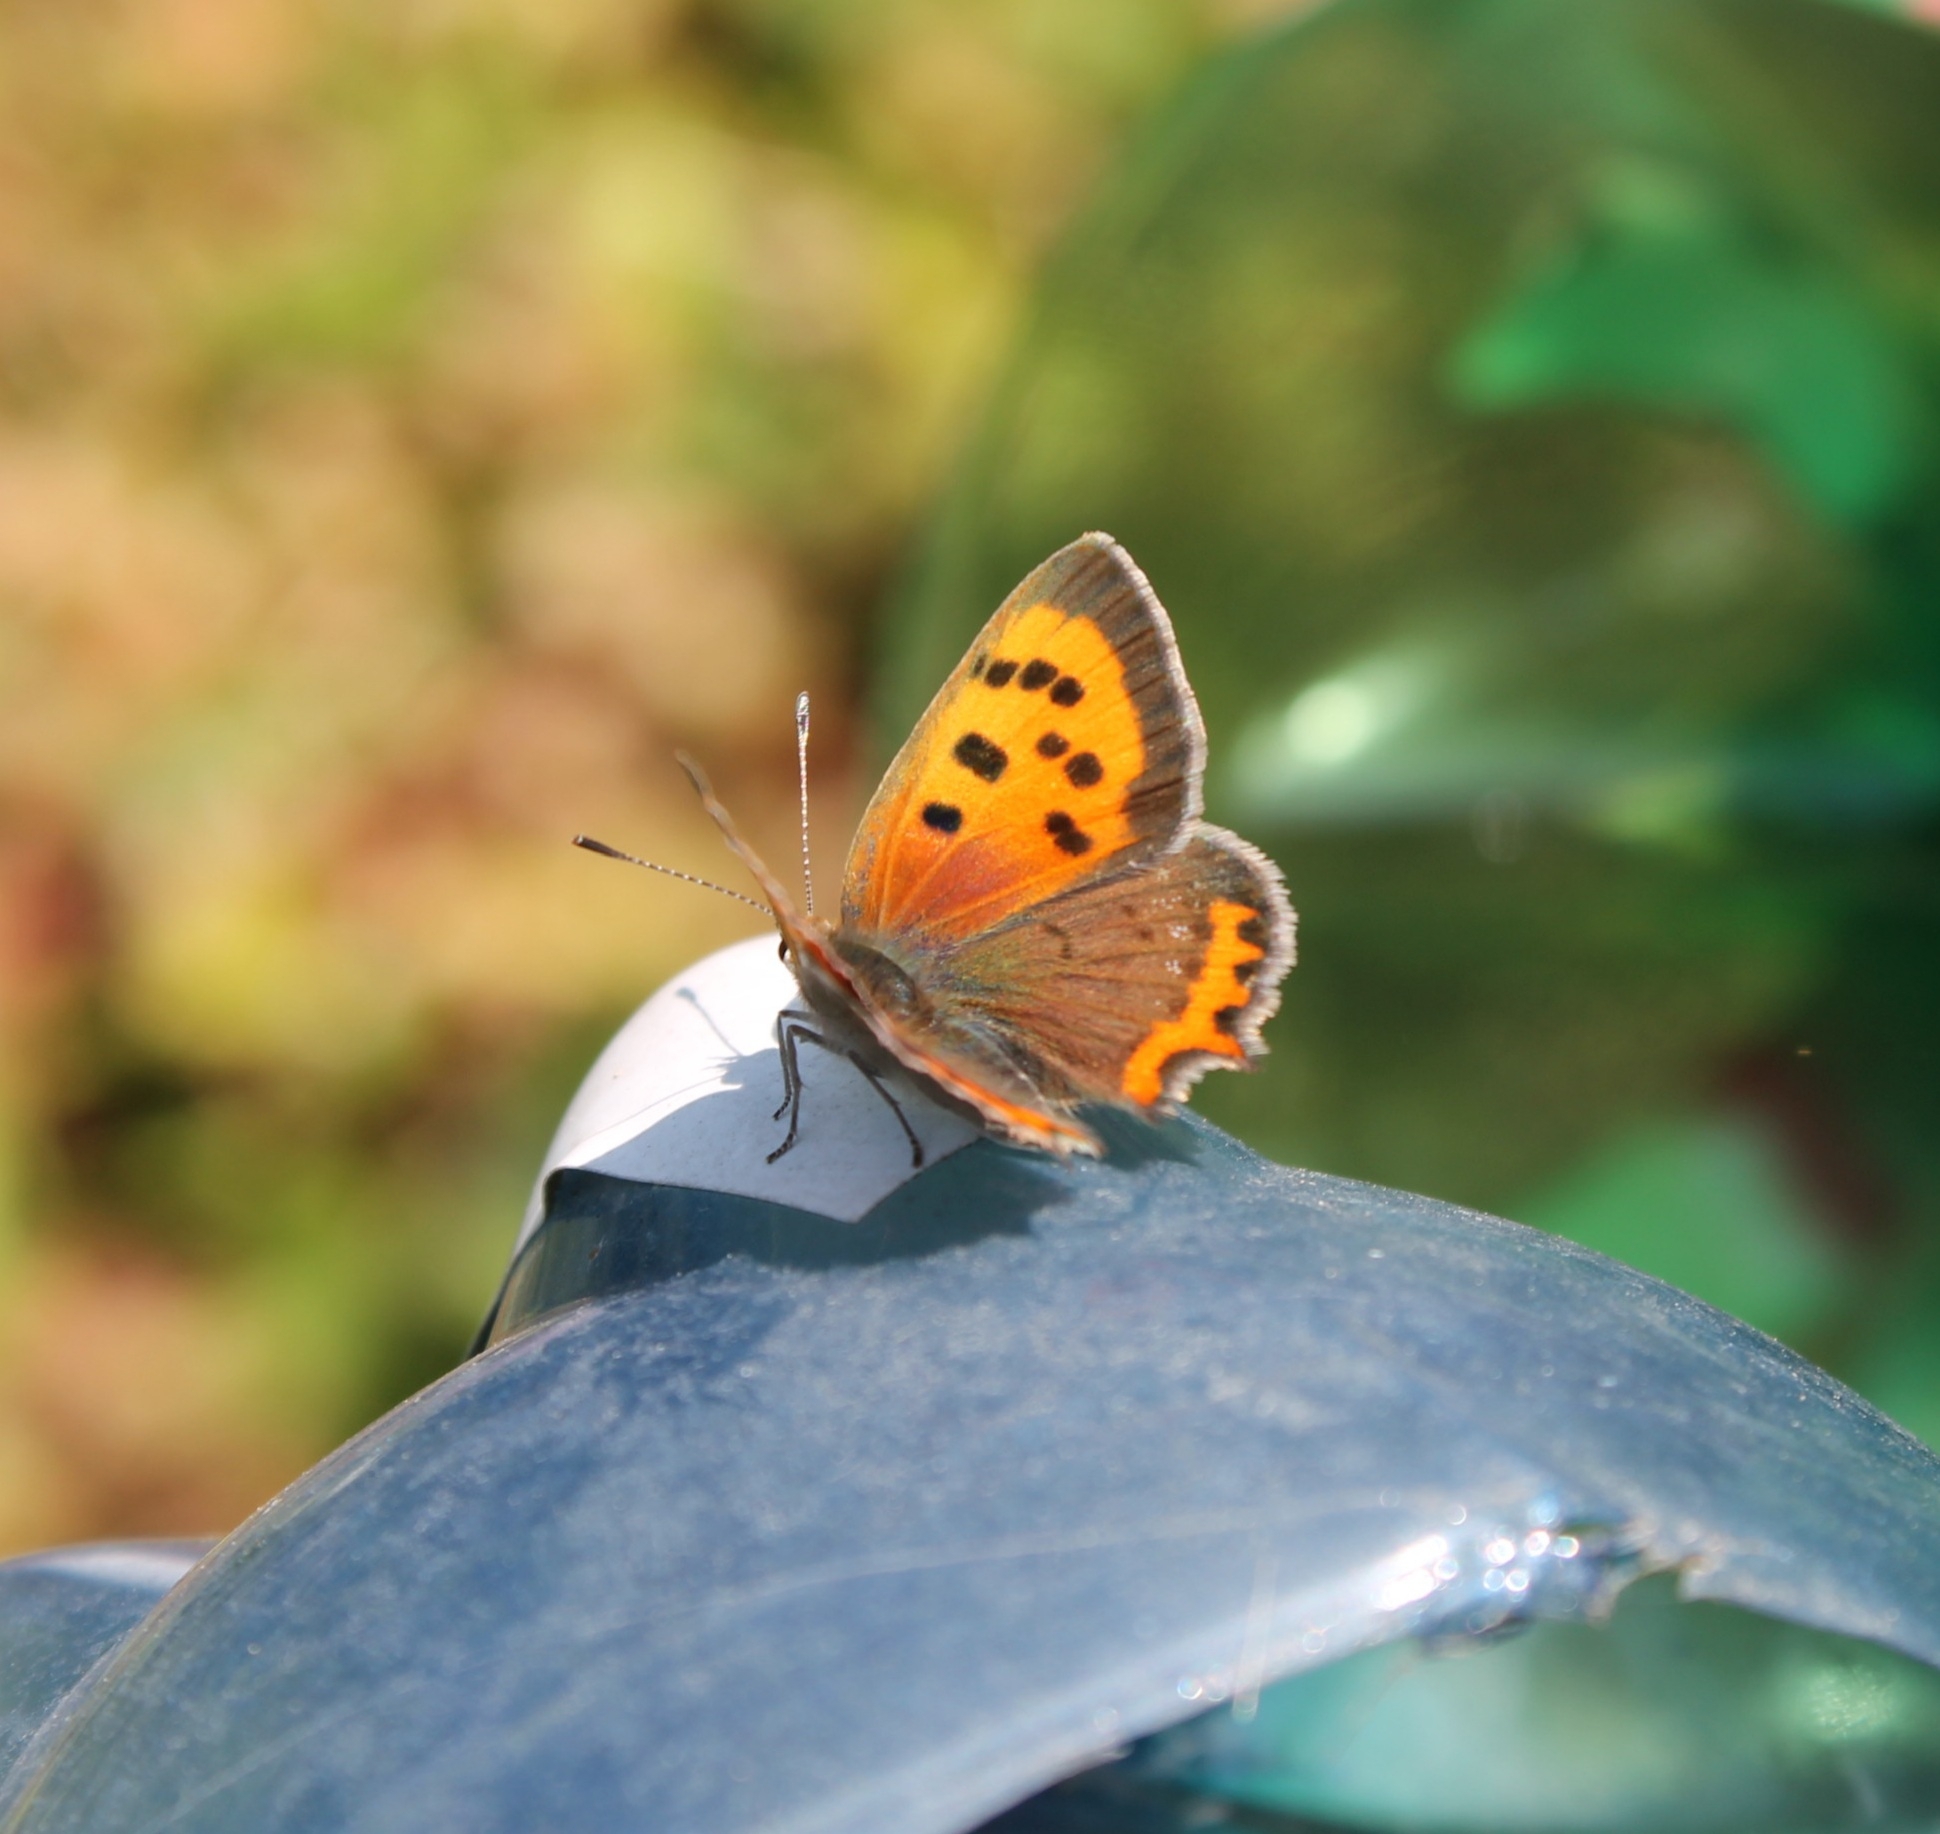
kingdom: Animalia
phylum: Arthropoda
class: Insecta
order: Lepidoptera
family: Lycaenidae
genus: Lycaena
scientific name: Lycaena phlaeas
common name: Small copper
